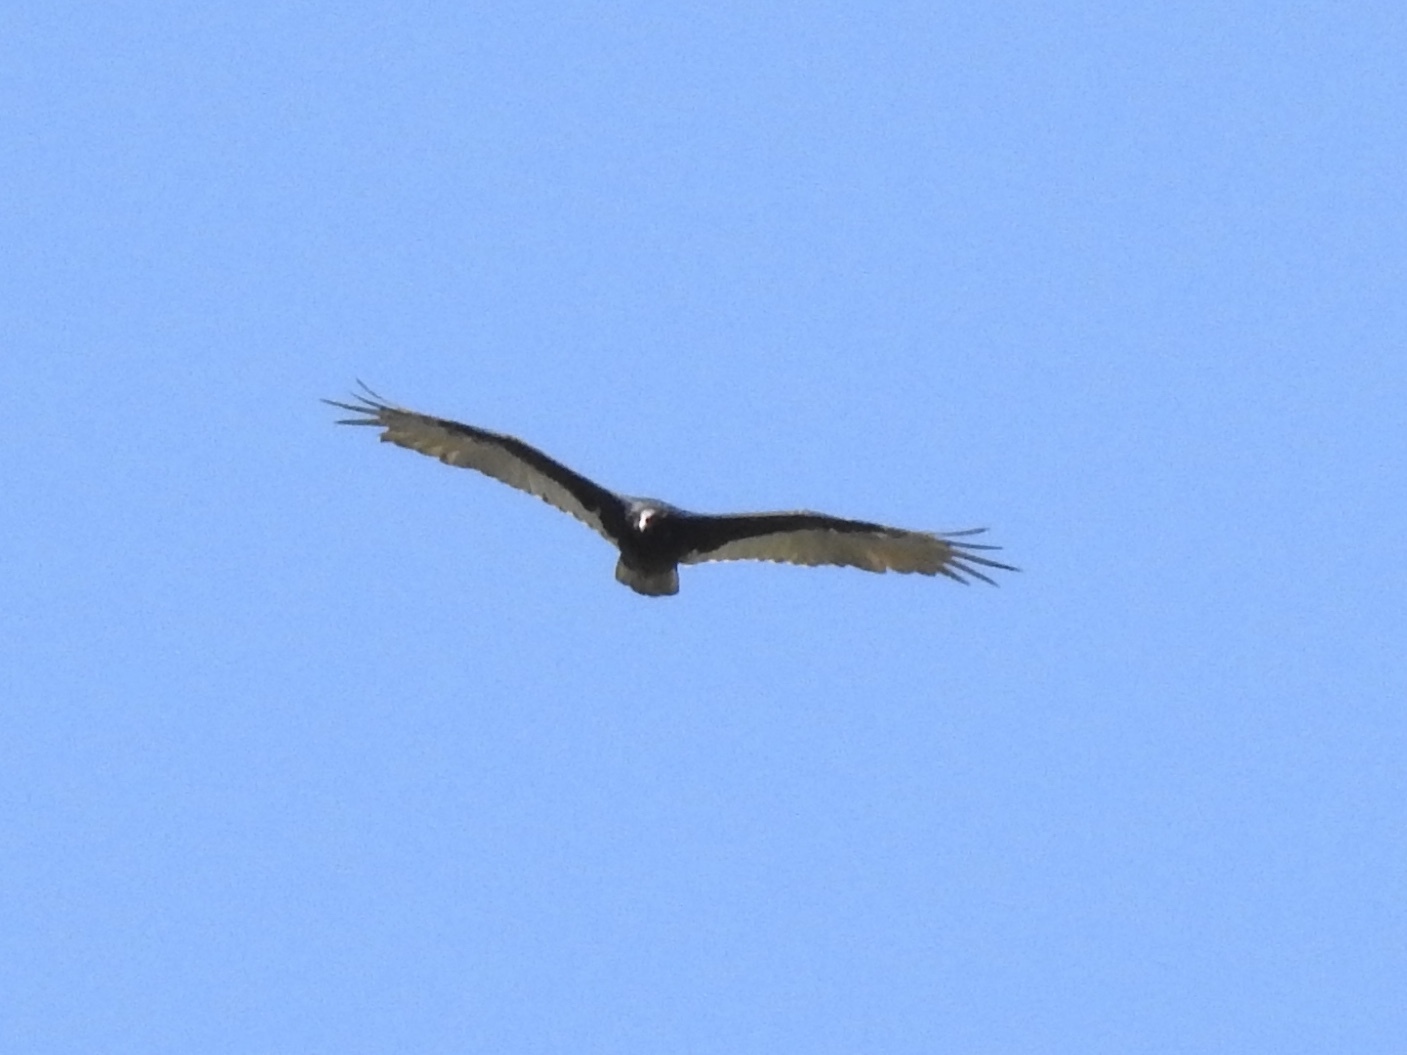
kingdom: Animalia
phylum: Chordata
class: Aves
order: Accipitriformes
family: Cathartidae
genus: Cathartes
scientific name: Cathartes aura
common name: Turkey vulture
